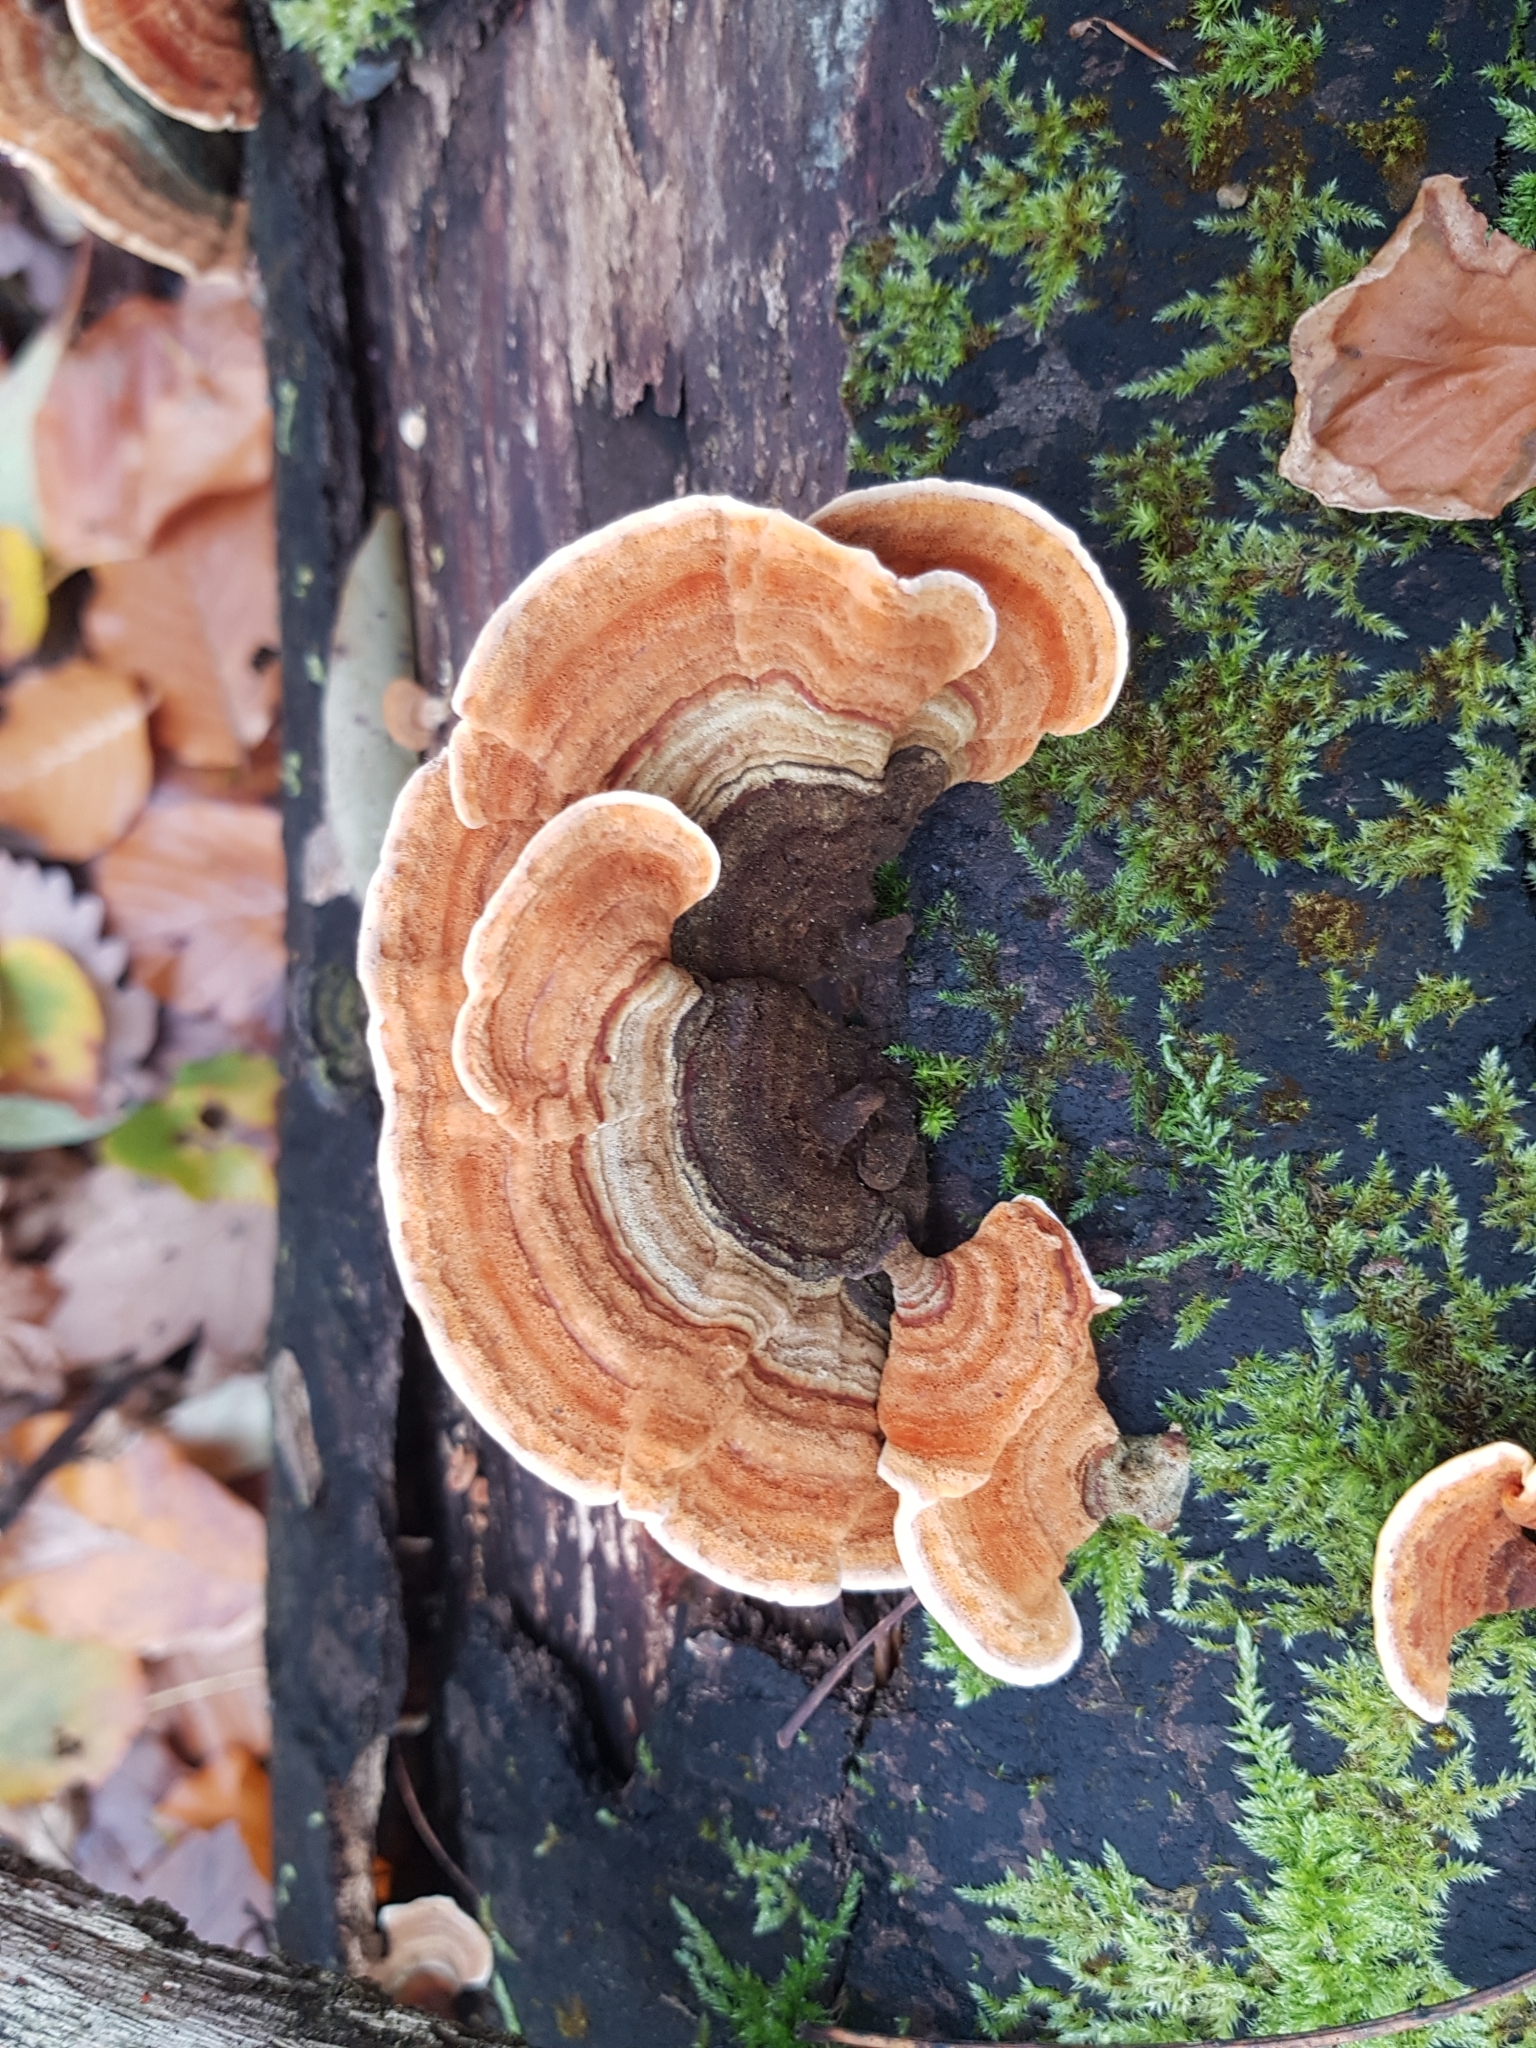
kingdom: Fungi
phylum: Basidiomycota
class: Agaricomycetes
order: Russulales
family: Stereaceae
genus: Stereum
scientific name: Stereum subtomentosum
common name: Yellowing curtain crust
